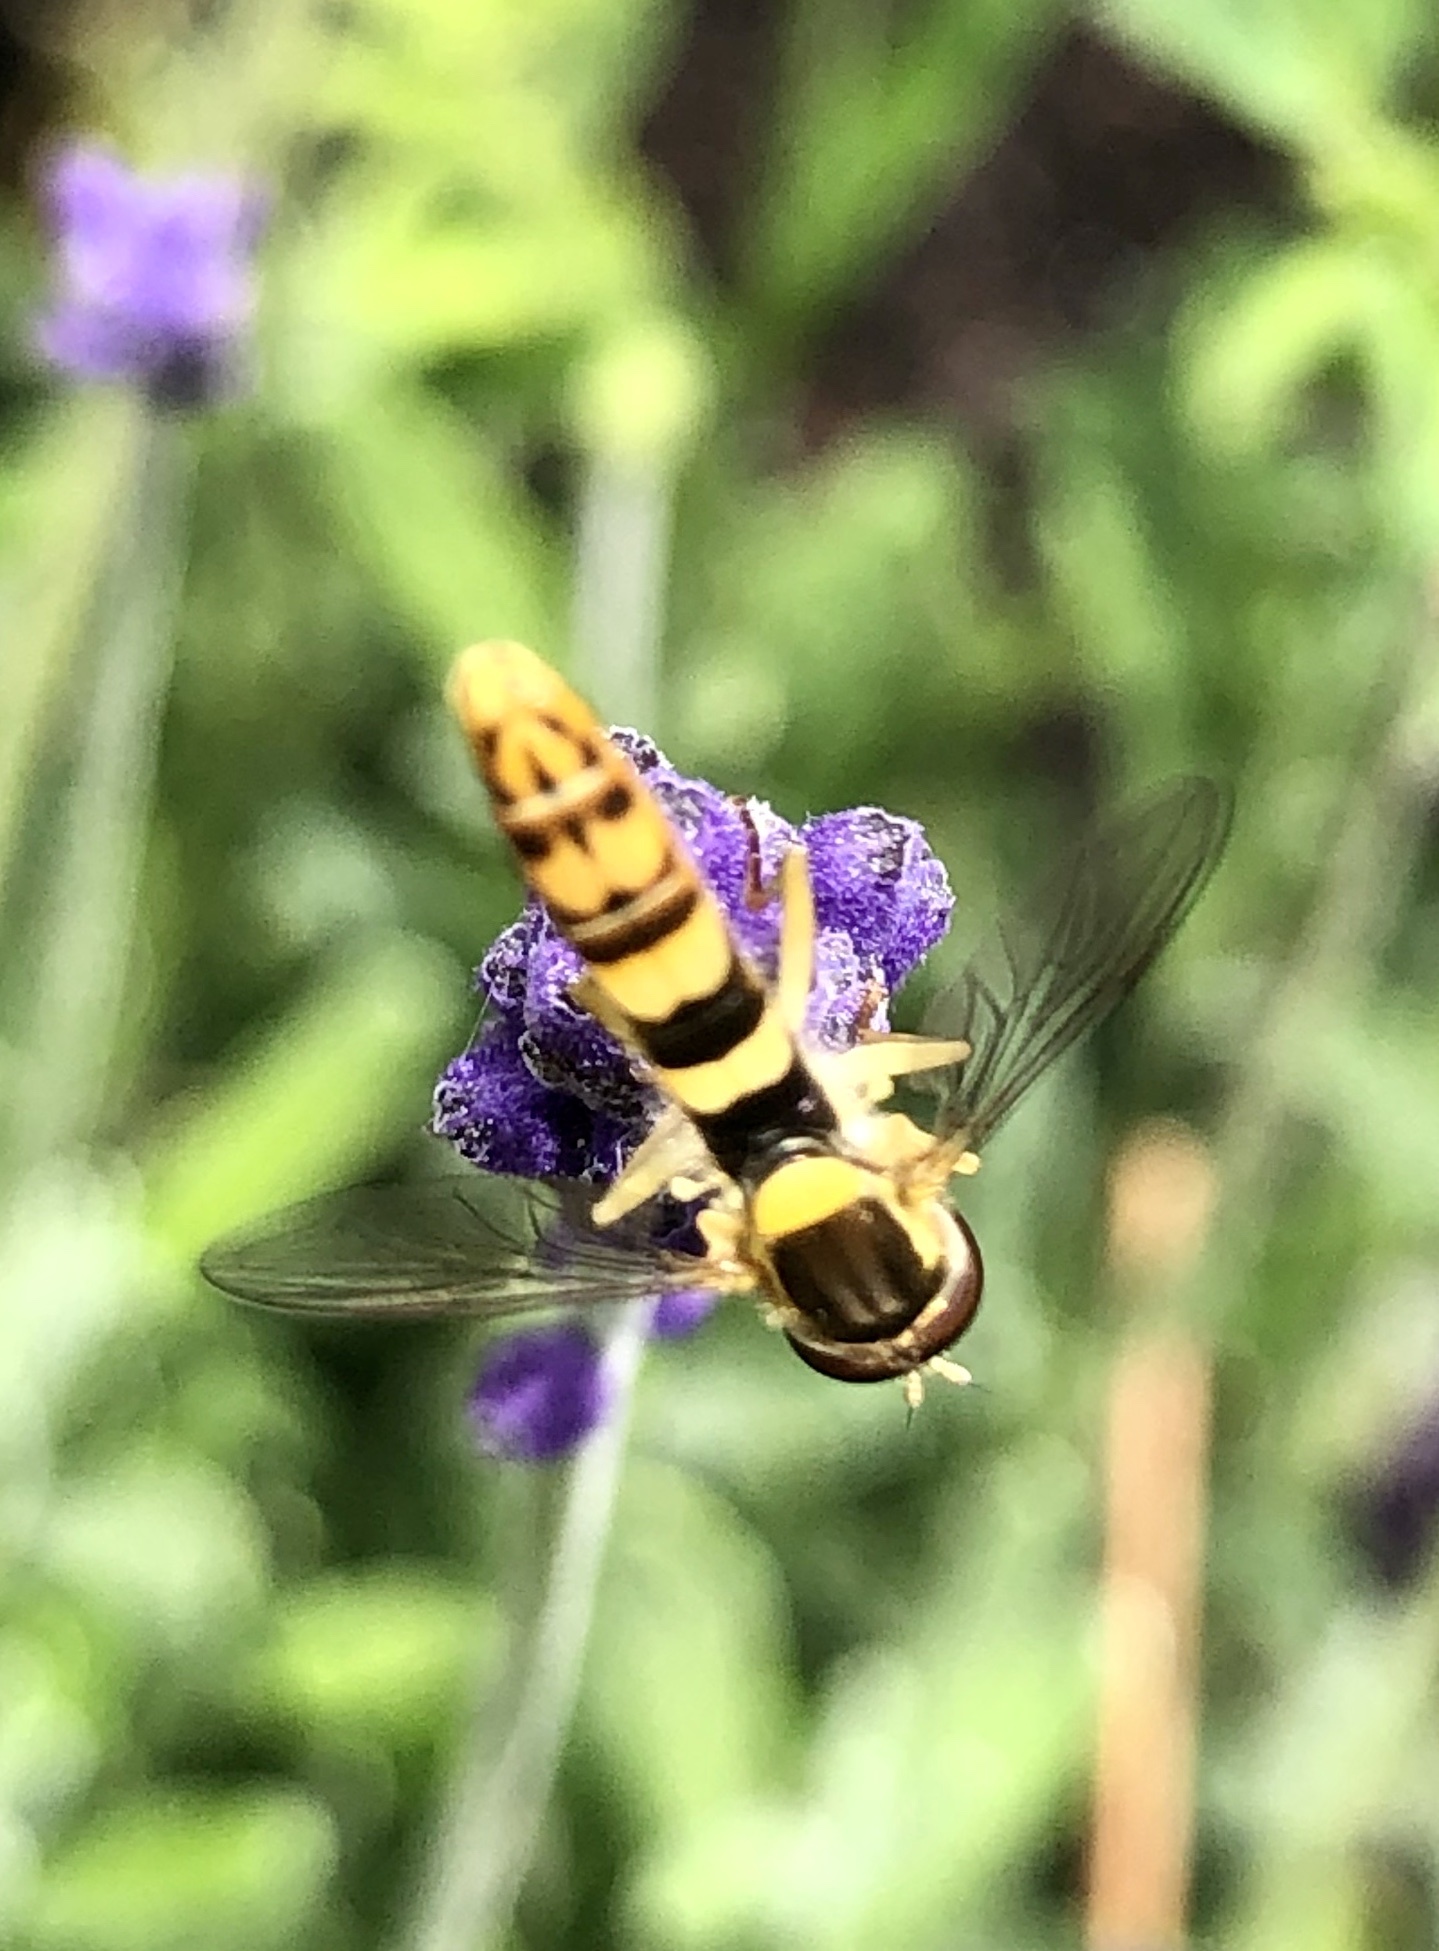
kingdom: Animalia
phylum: Arthropoda
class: Insecta
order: Diptera
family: Syrphidae
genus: Sphaerophoria
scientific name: Sphaerophoria scripta
